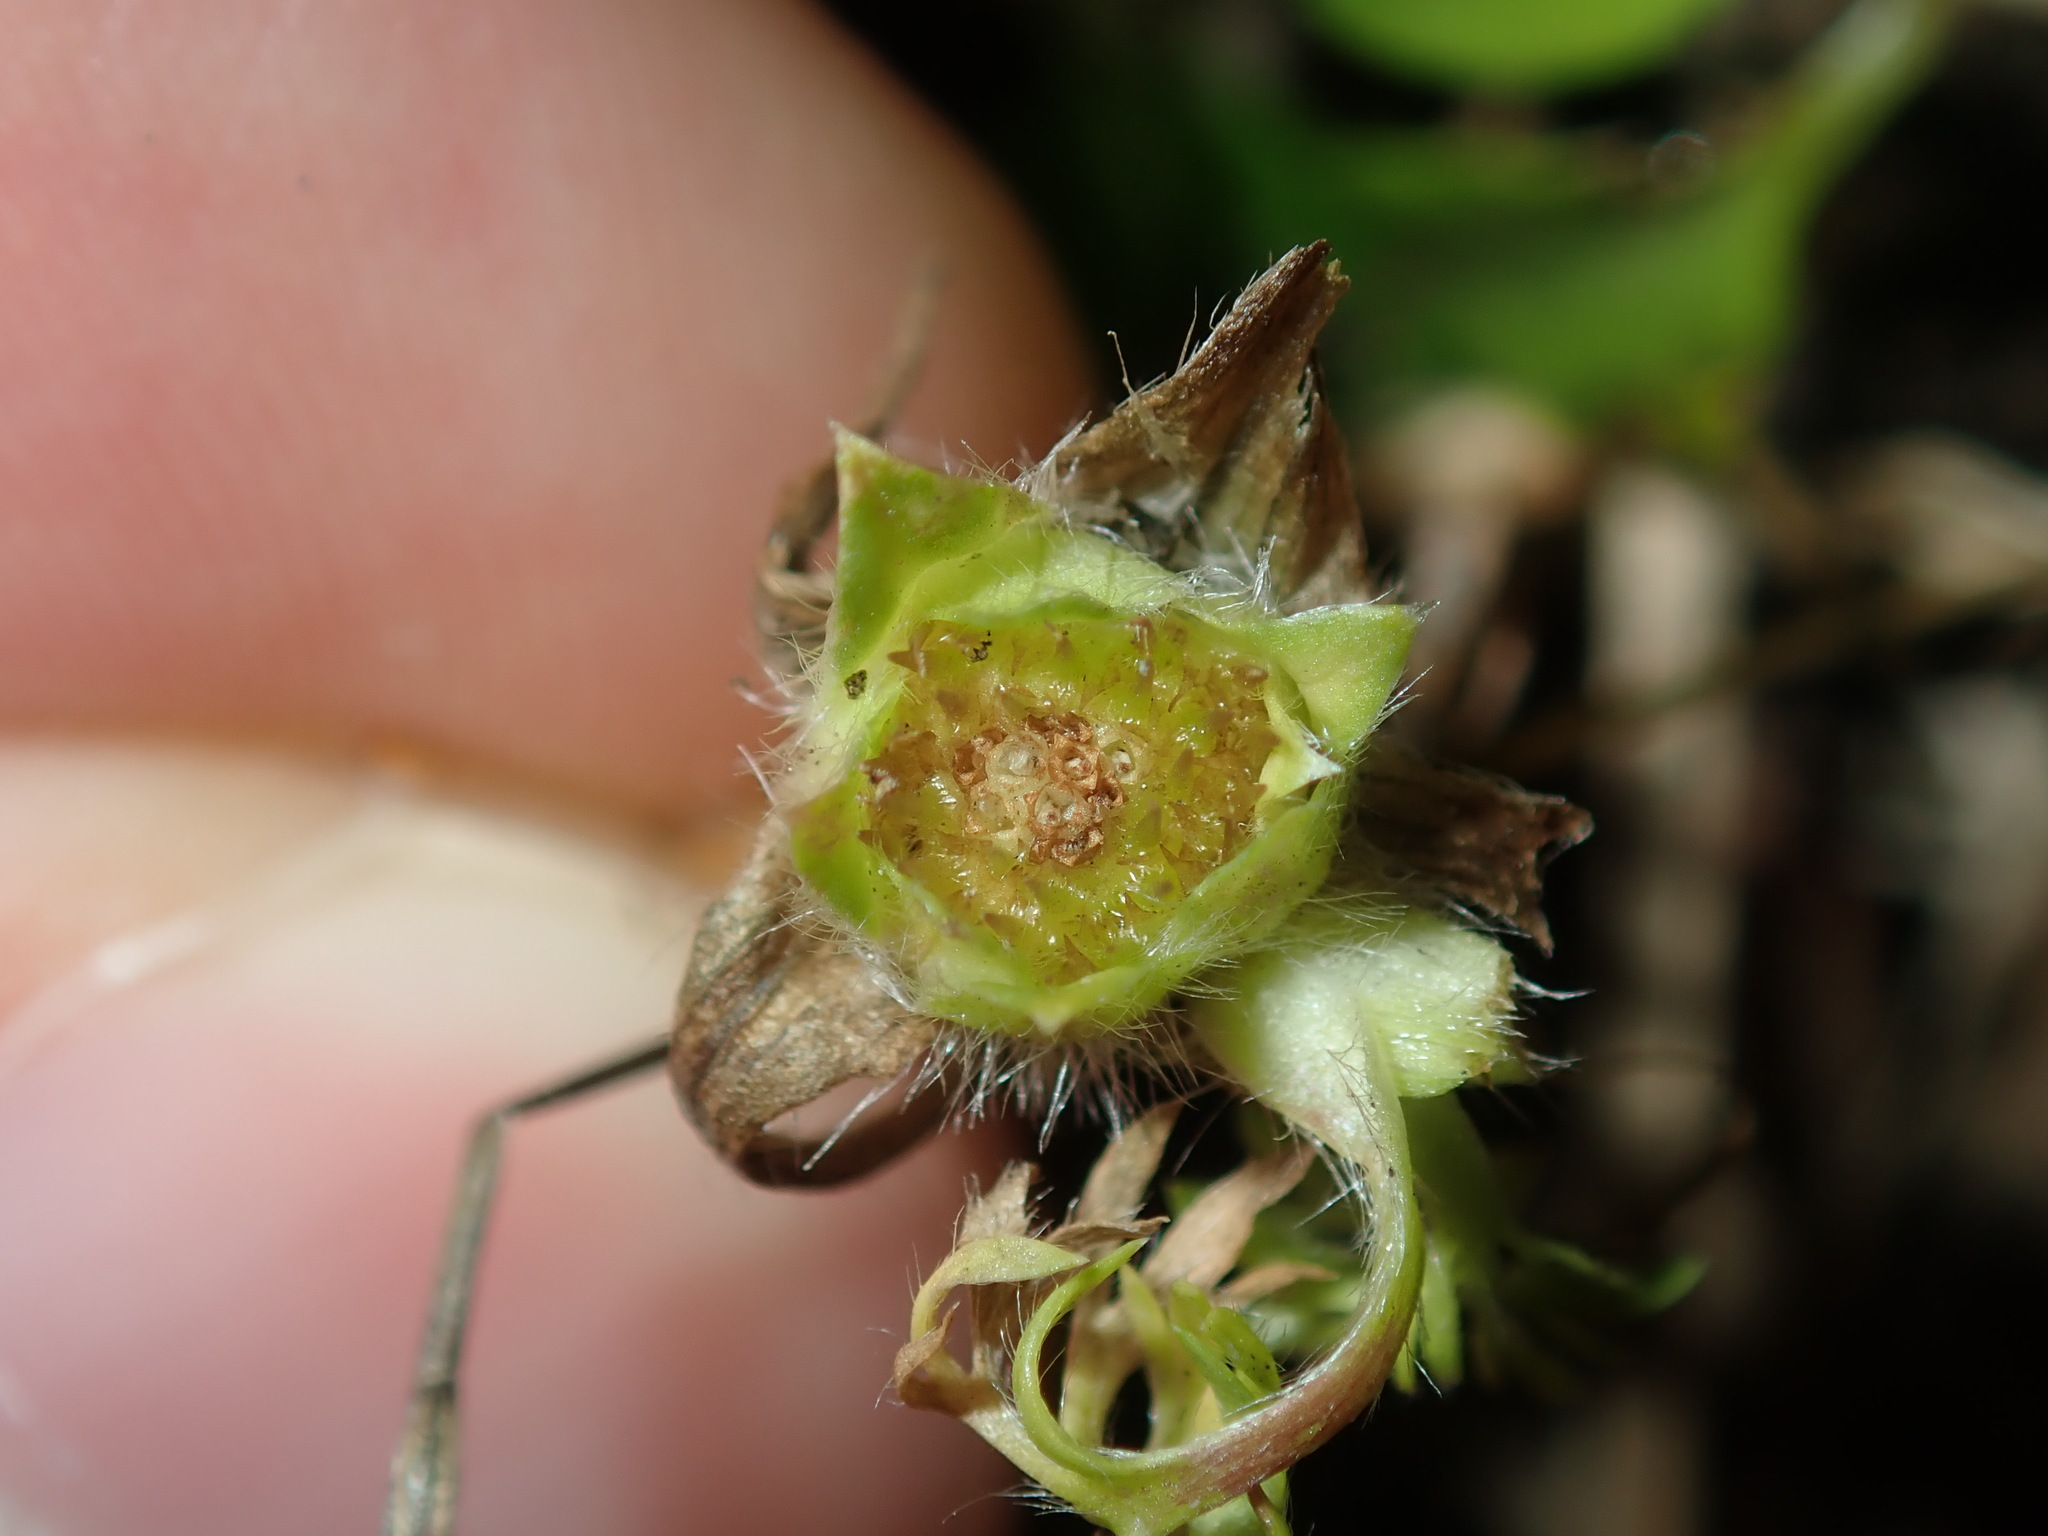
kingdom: Plantae
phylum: Tracheophyta
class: Magnoliopsida
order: Asterales
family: Asteraceae
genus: Soliva
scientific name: Soliva sessilis
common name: Field burrweed
